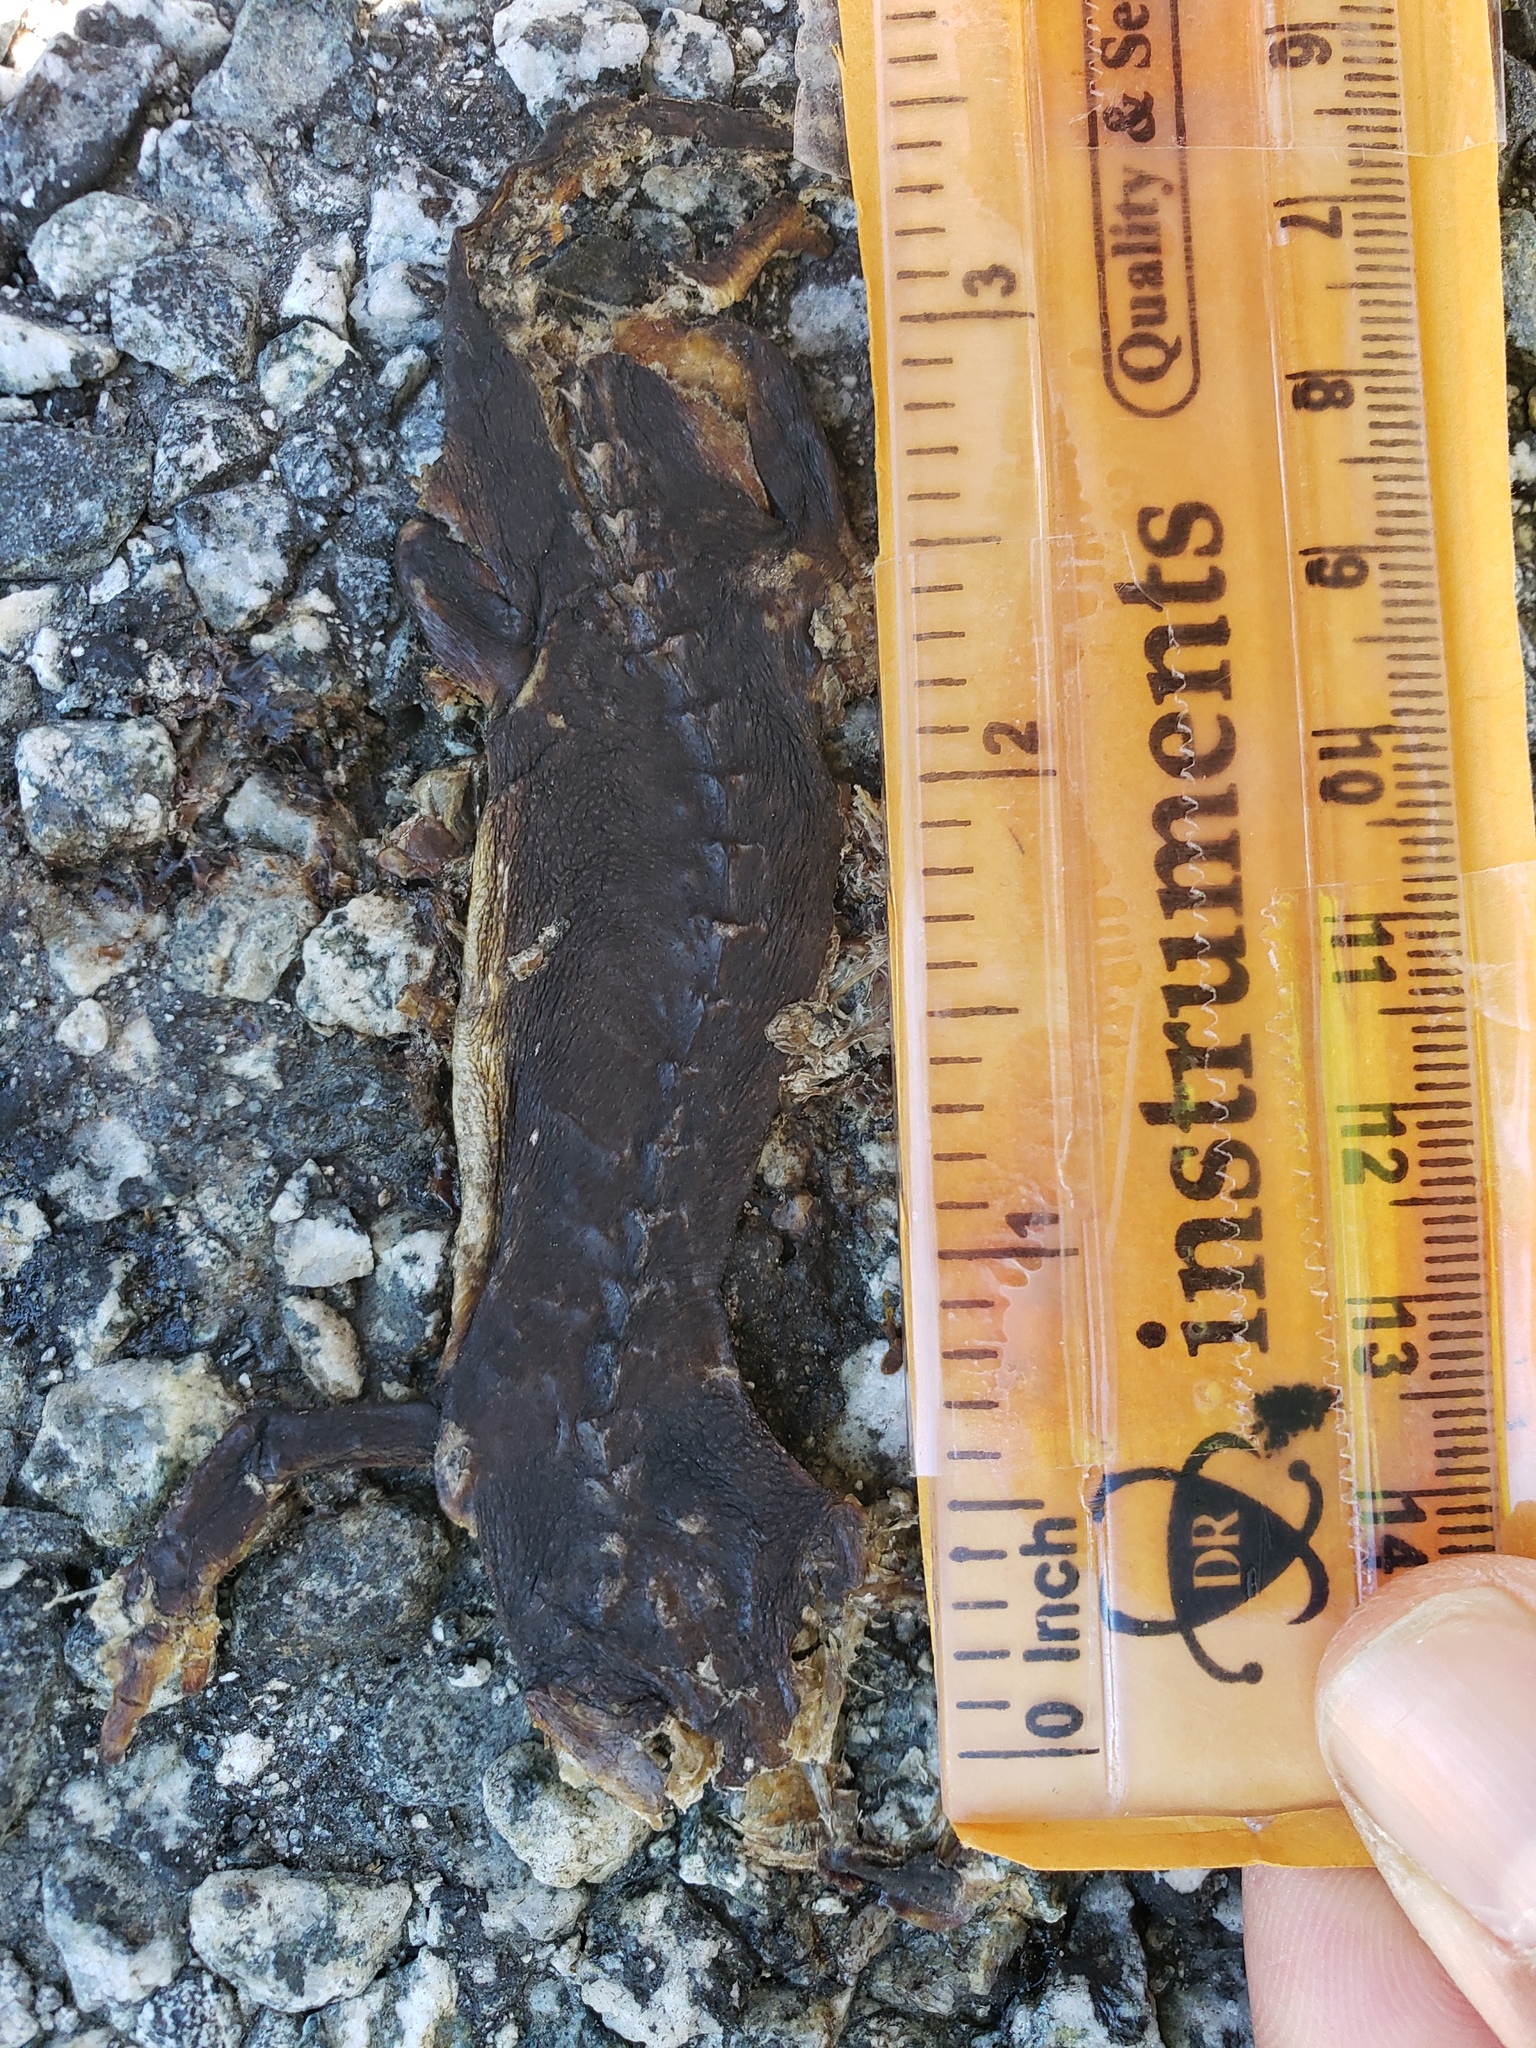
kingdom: Animalia
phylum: Chordata
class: Amphibia
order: Caudata
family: Salamandridae
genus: Taricha
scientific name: Taricha
